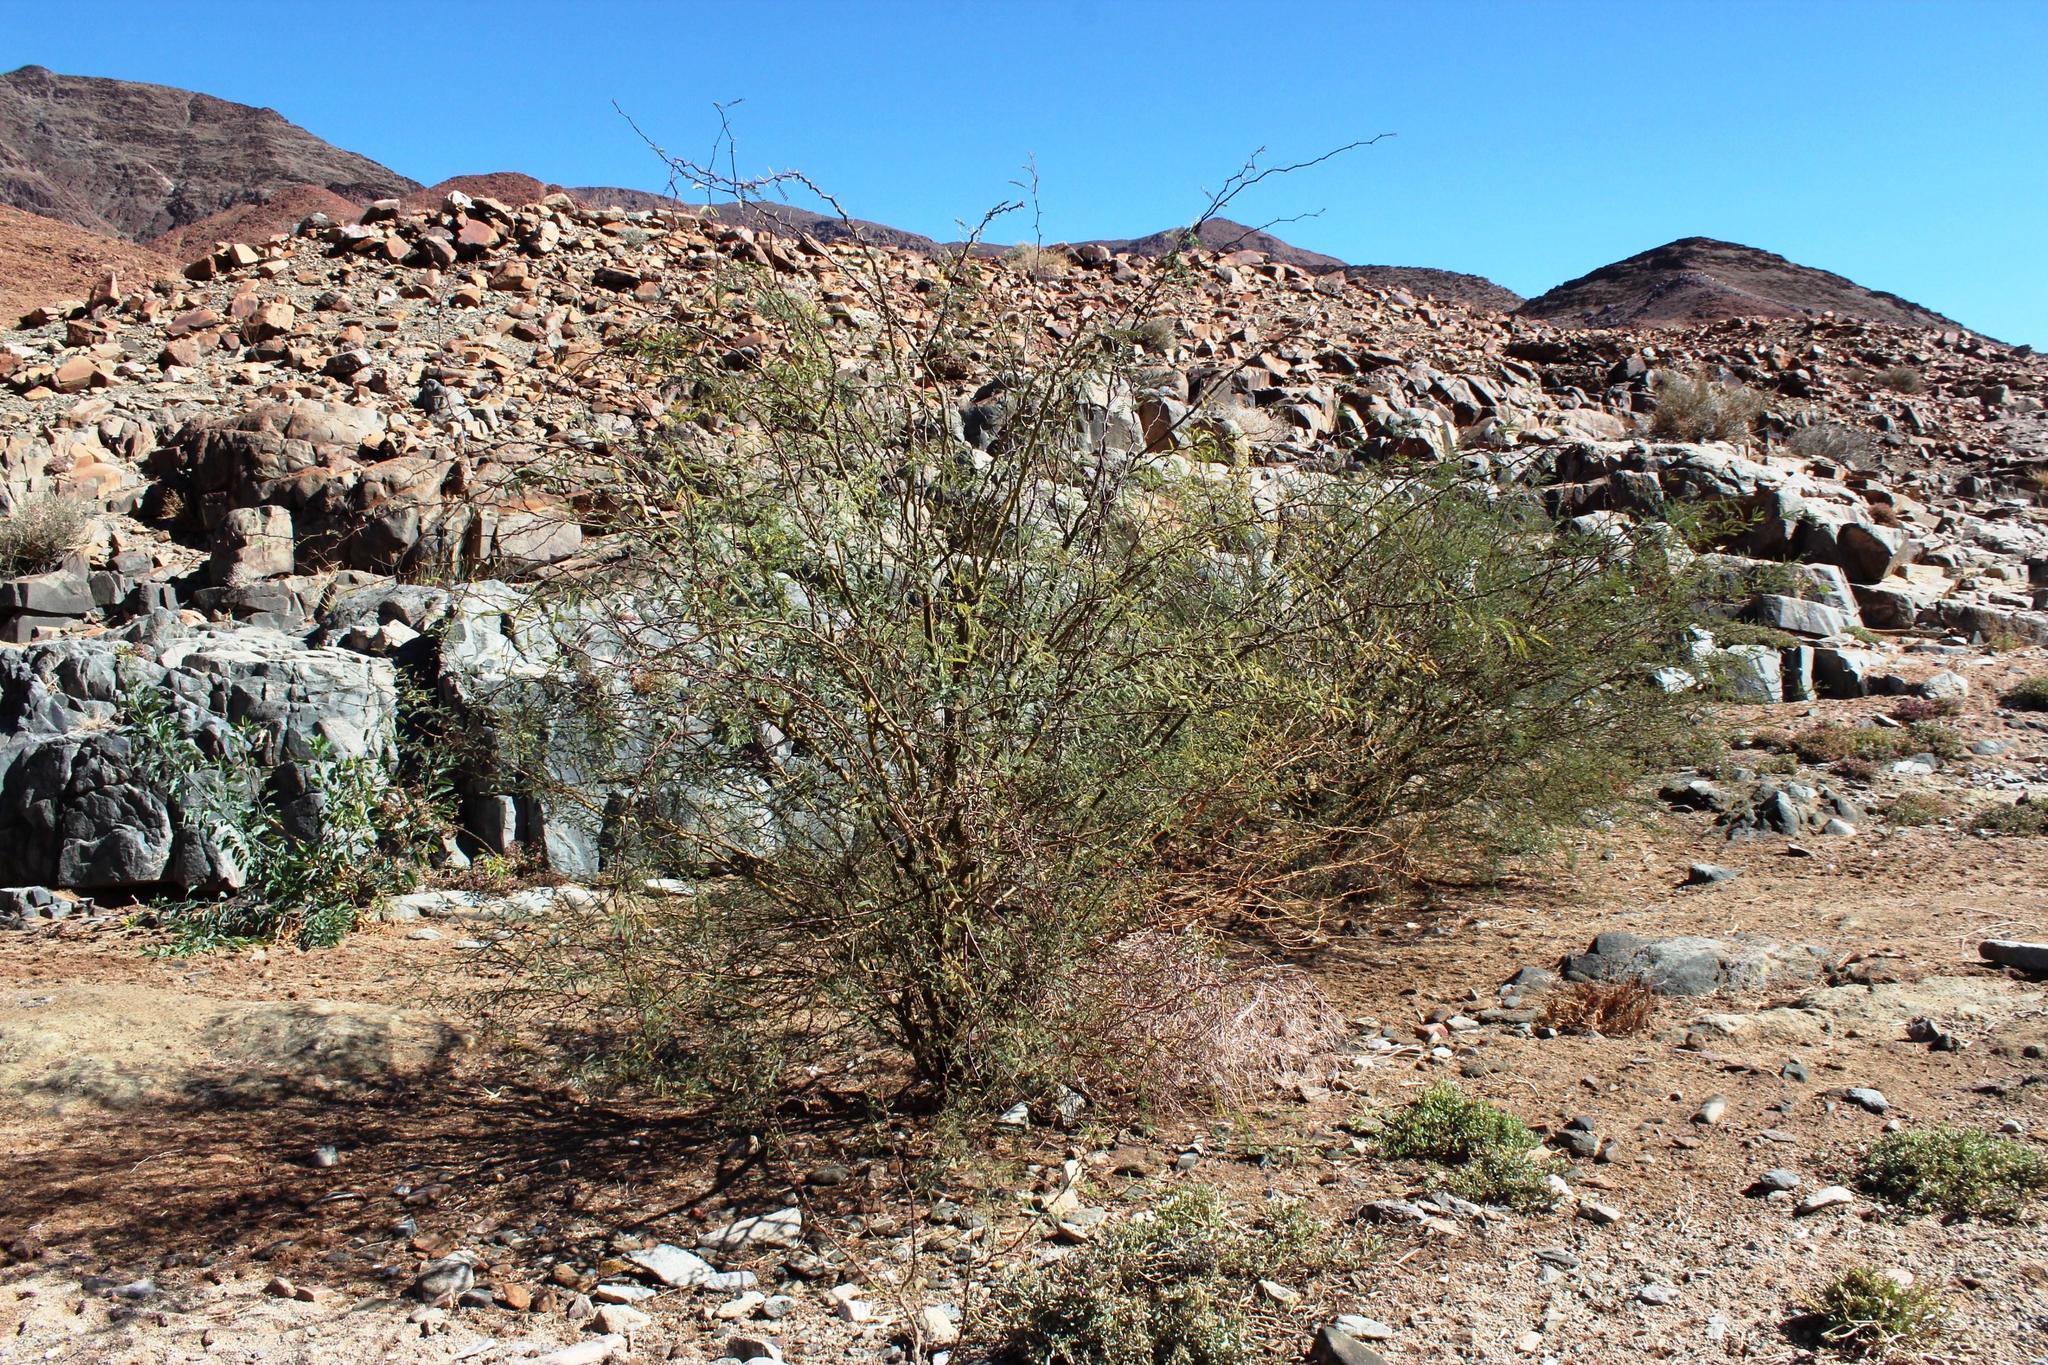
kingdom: Plantae
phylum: Tracheophyta
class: Magnoliopsida
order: Fabales
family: Fabaceae
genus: Prosopis
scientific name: Prosopis glandulosa
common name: Honey mesquite
